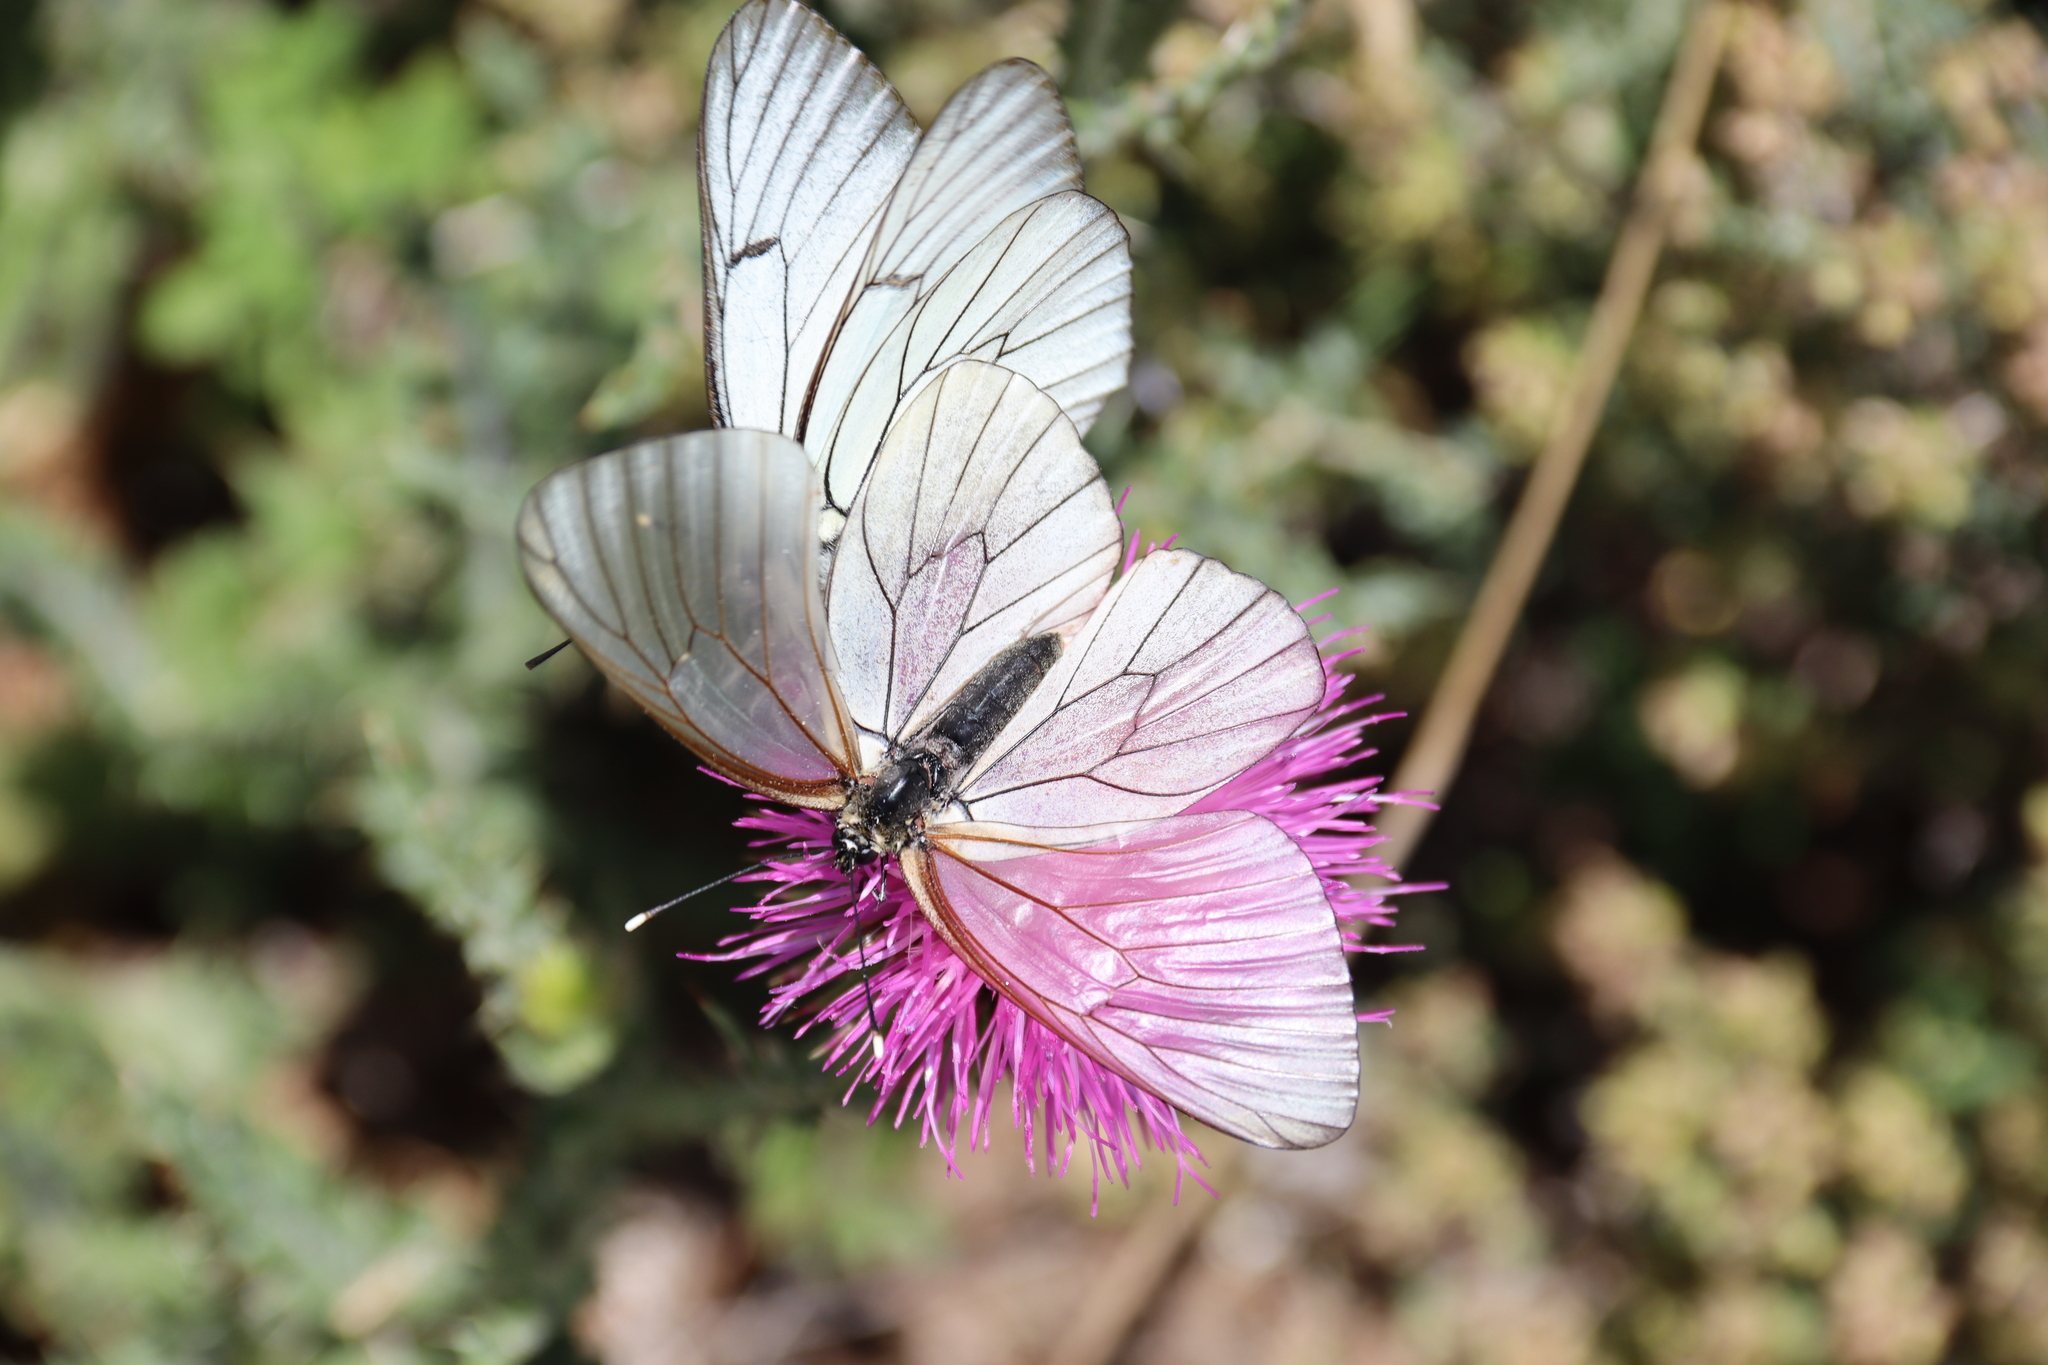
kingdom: Animalia
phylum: Arthropoda
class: Insecta
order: Lepidoptera
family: Pieridae
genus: Aporia
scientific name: Aporia crataegi
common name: Black-veined white
